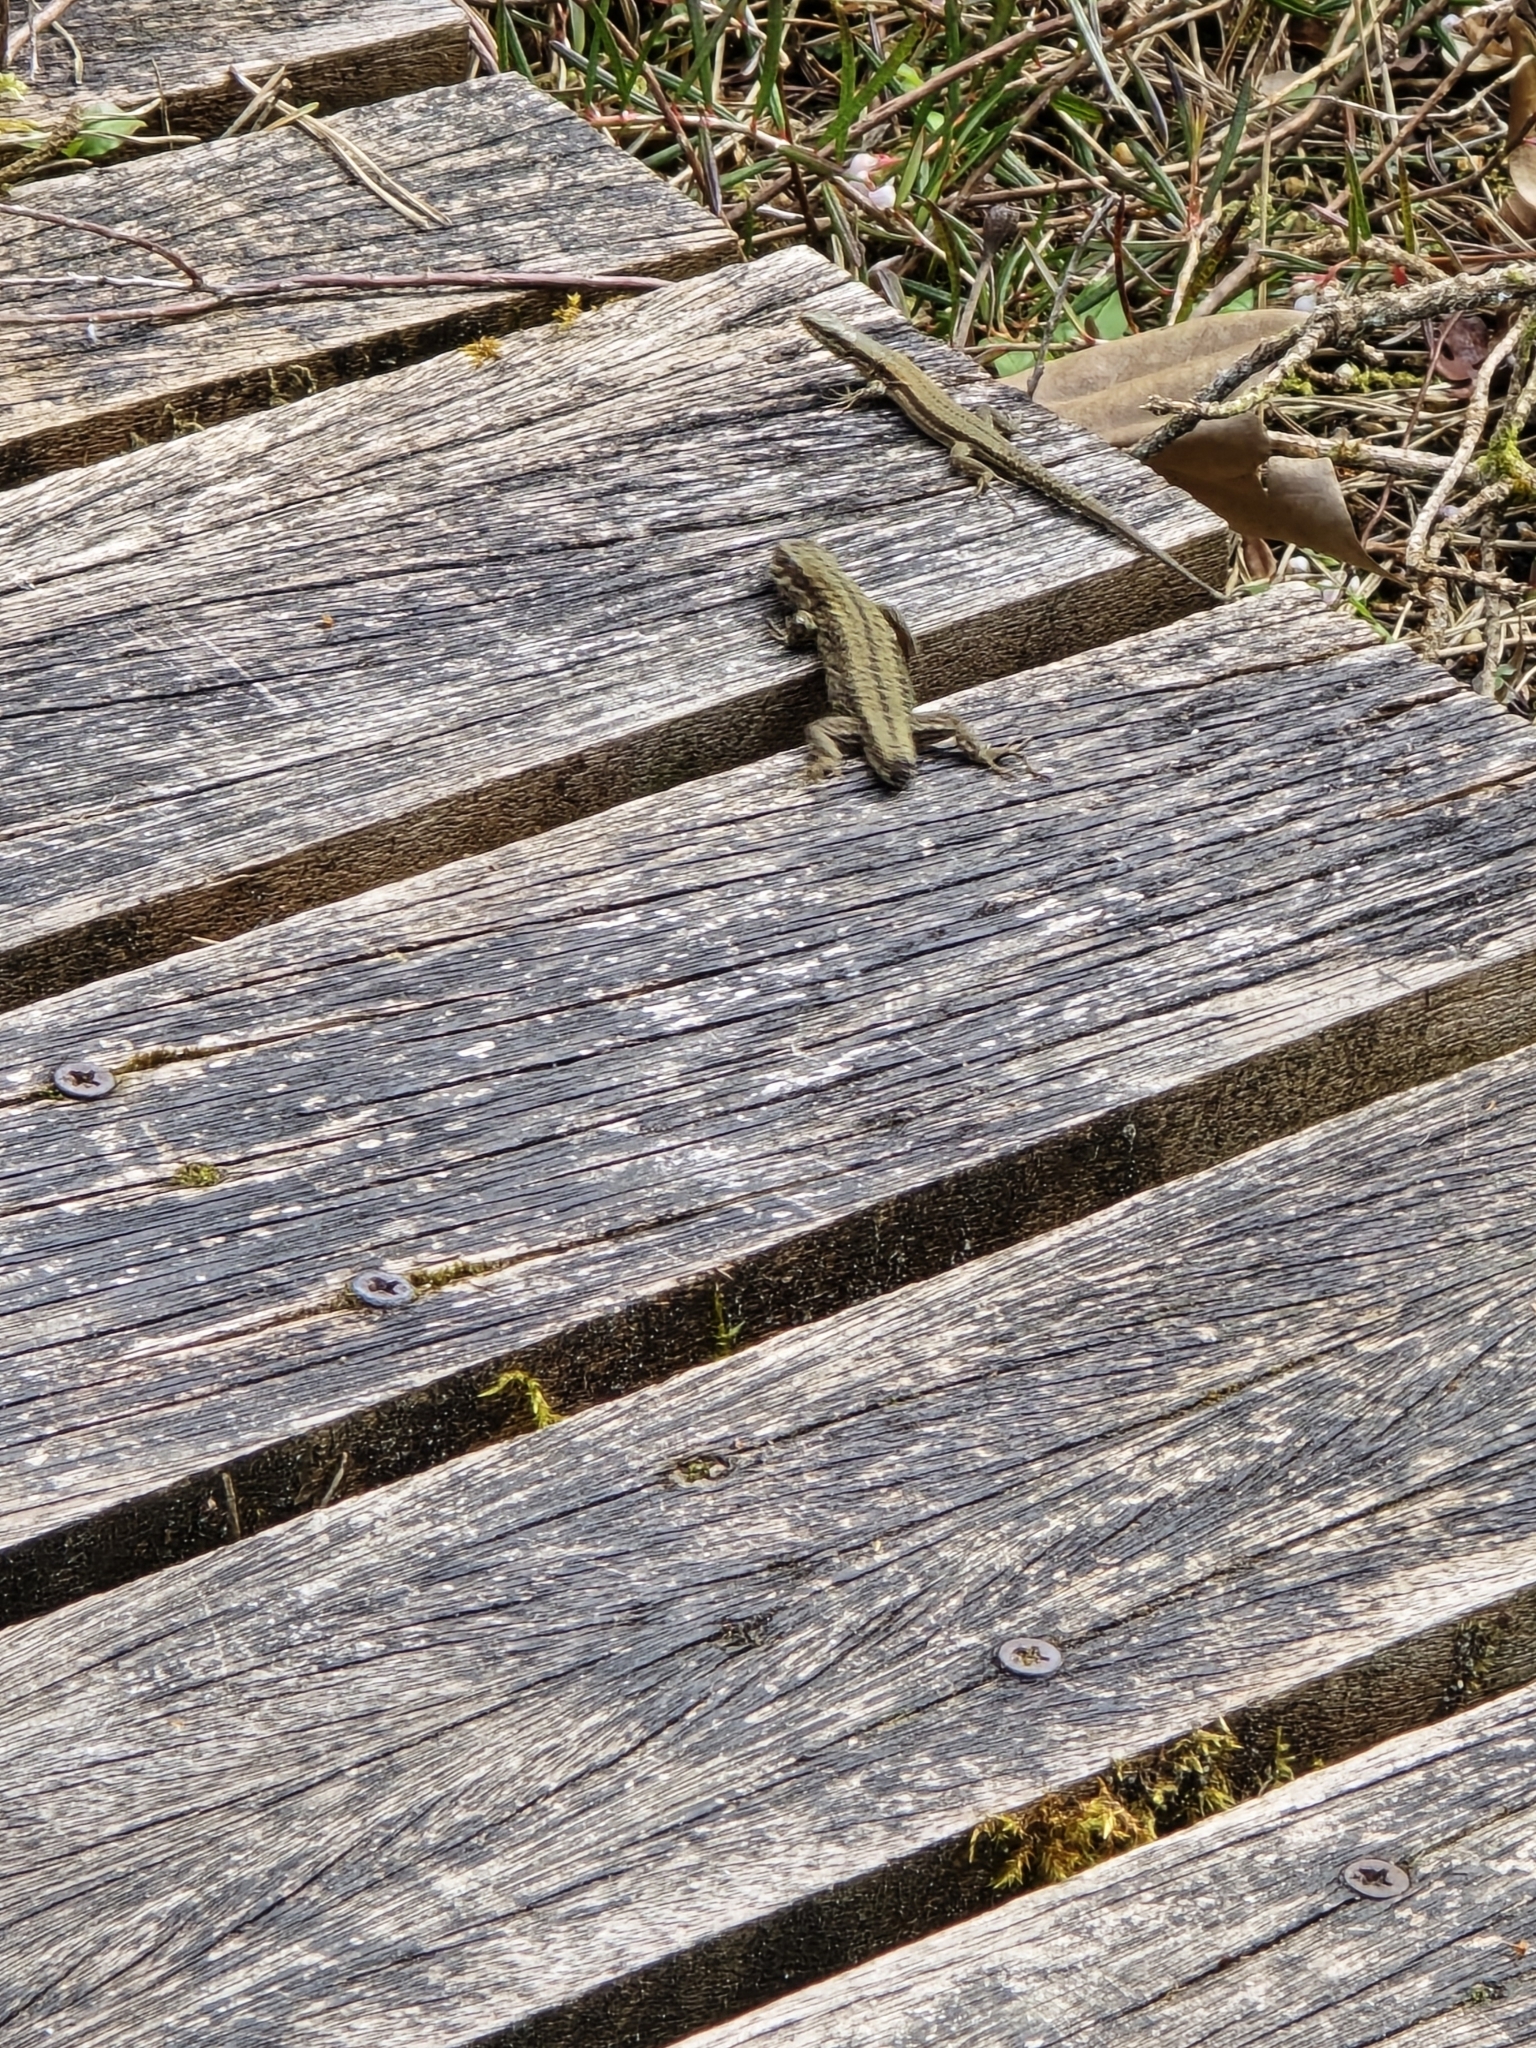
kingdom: Animalia
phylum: Chordata
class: Squamata
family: Lacertidae
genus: Podarcis
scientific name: Podarcis muralis
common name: Common wall lizard
